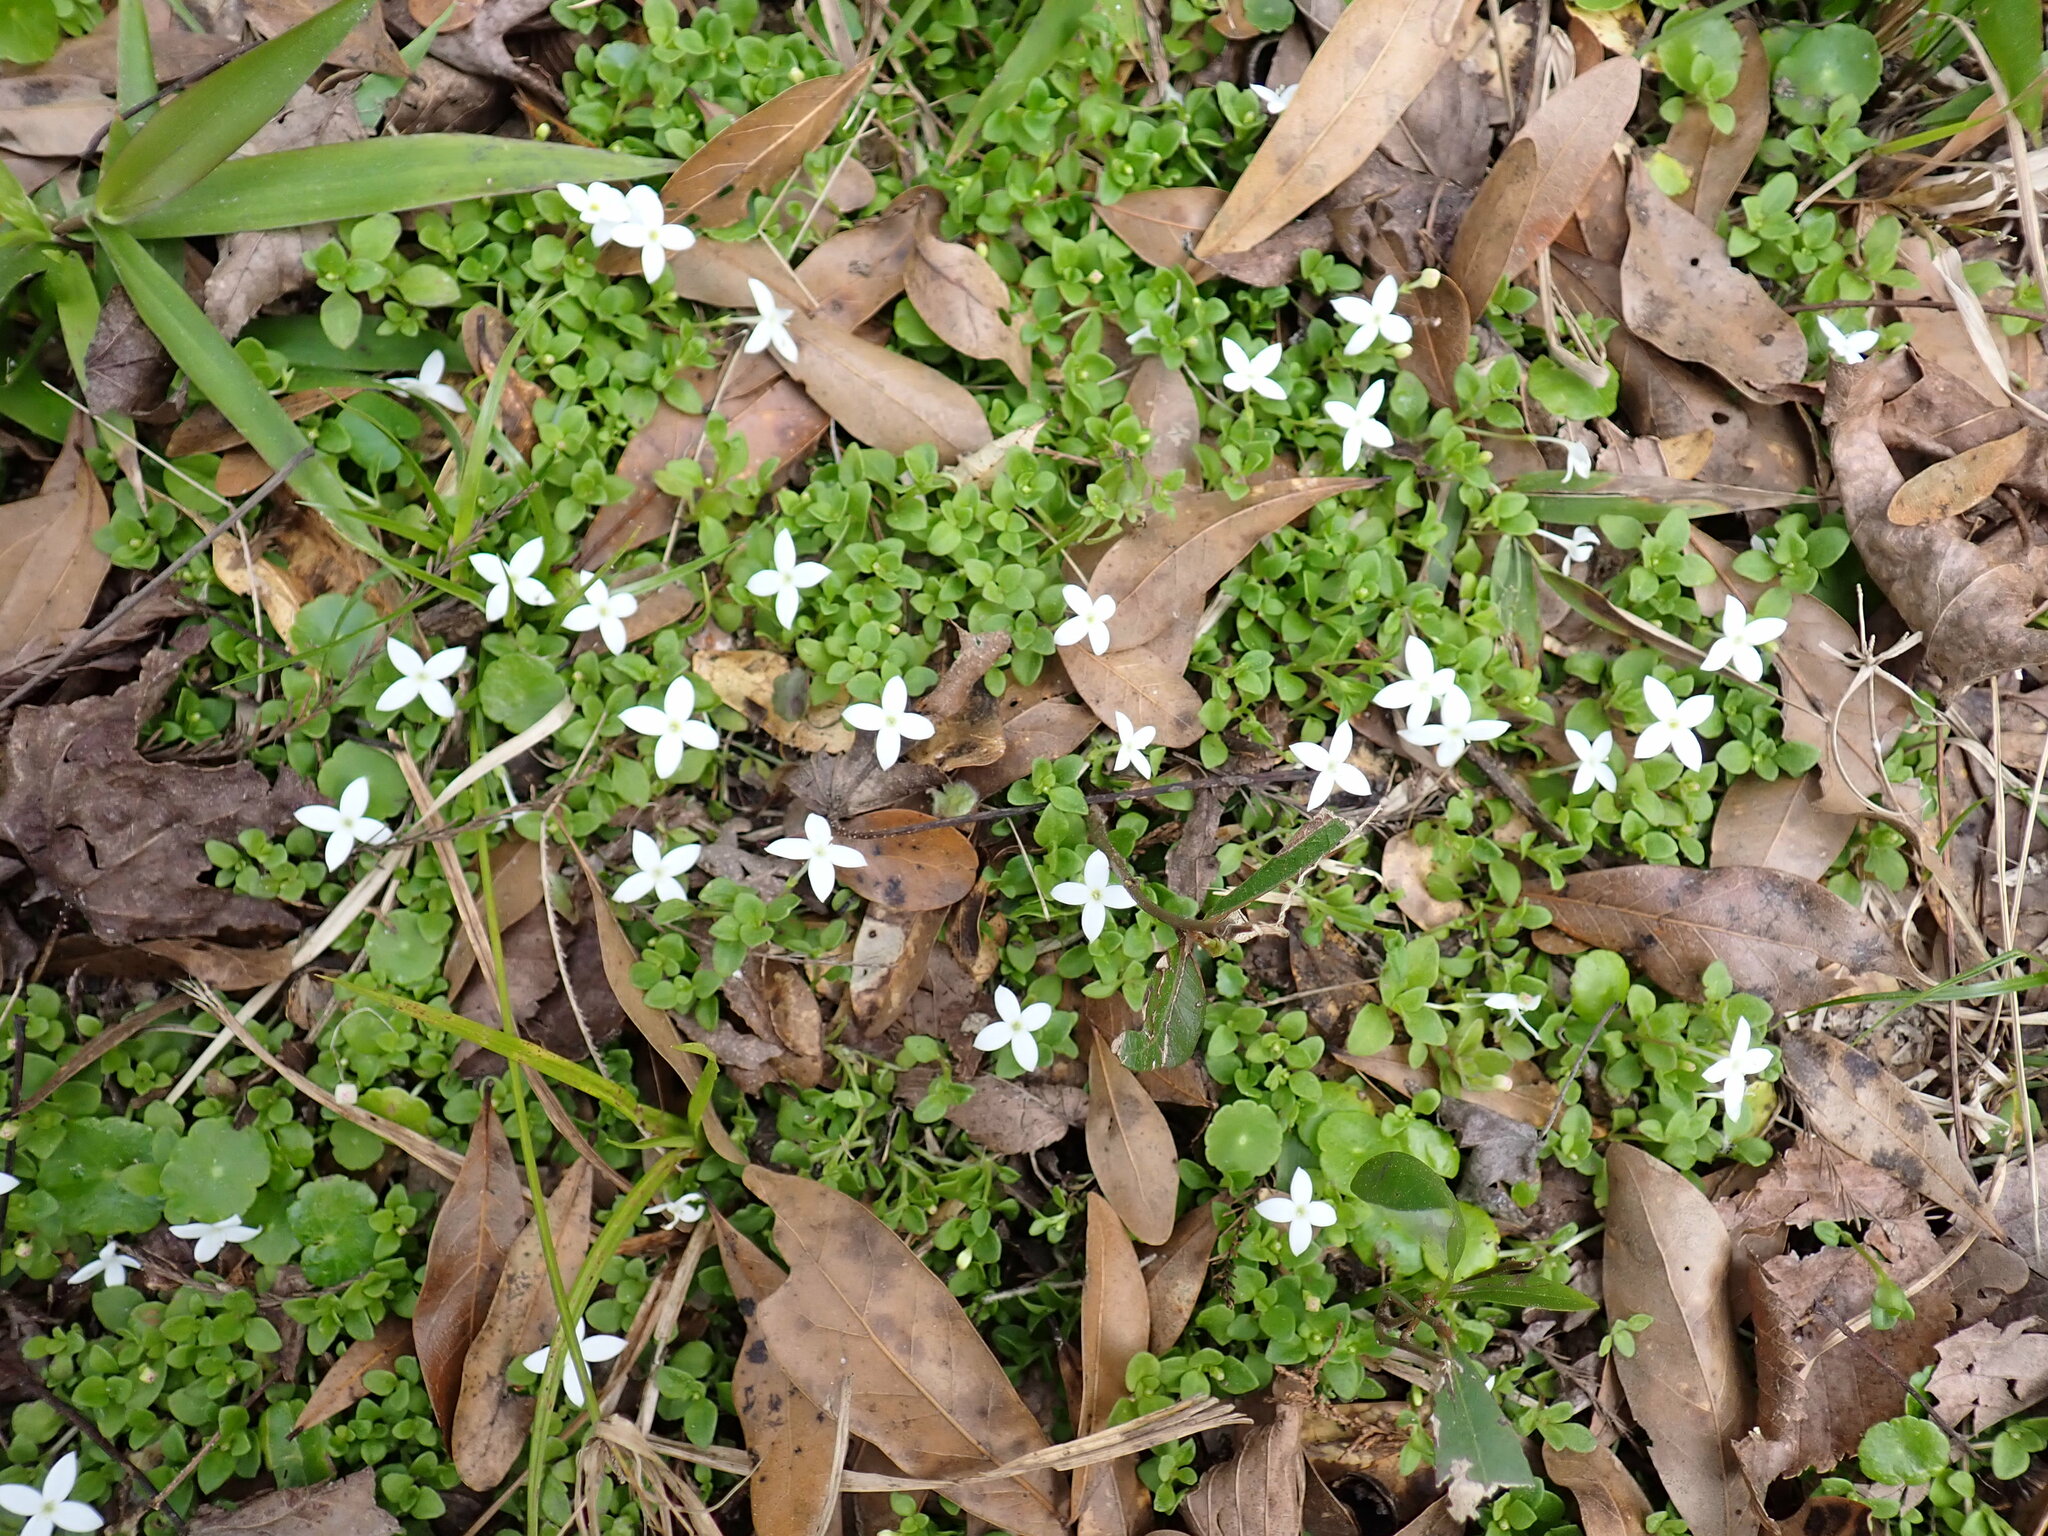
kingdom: Plantae
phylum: Tracheophyta
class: Magnoliopsida
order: Gentianales
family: Rubiaceae
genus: Houstonia
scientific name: Houstonia procumbens
